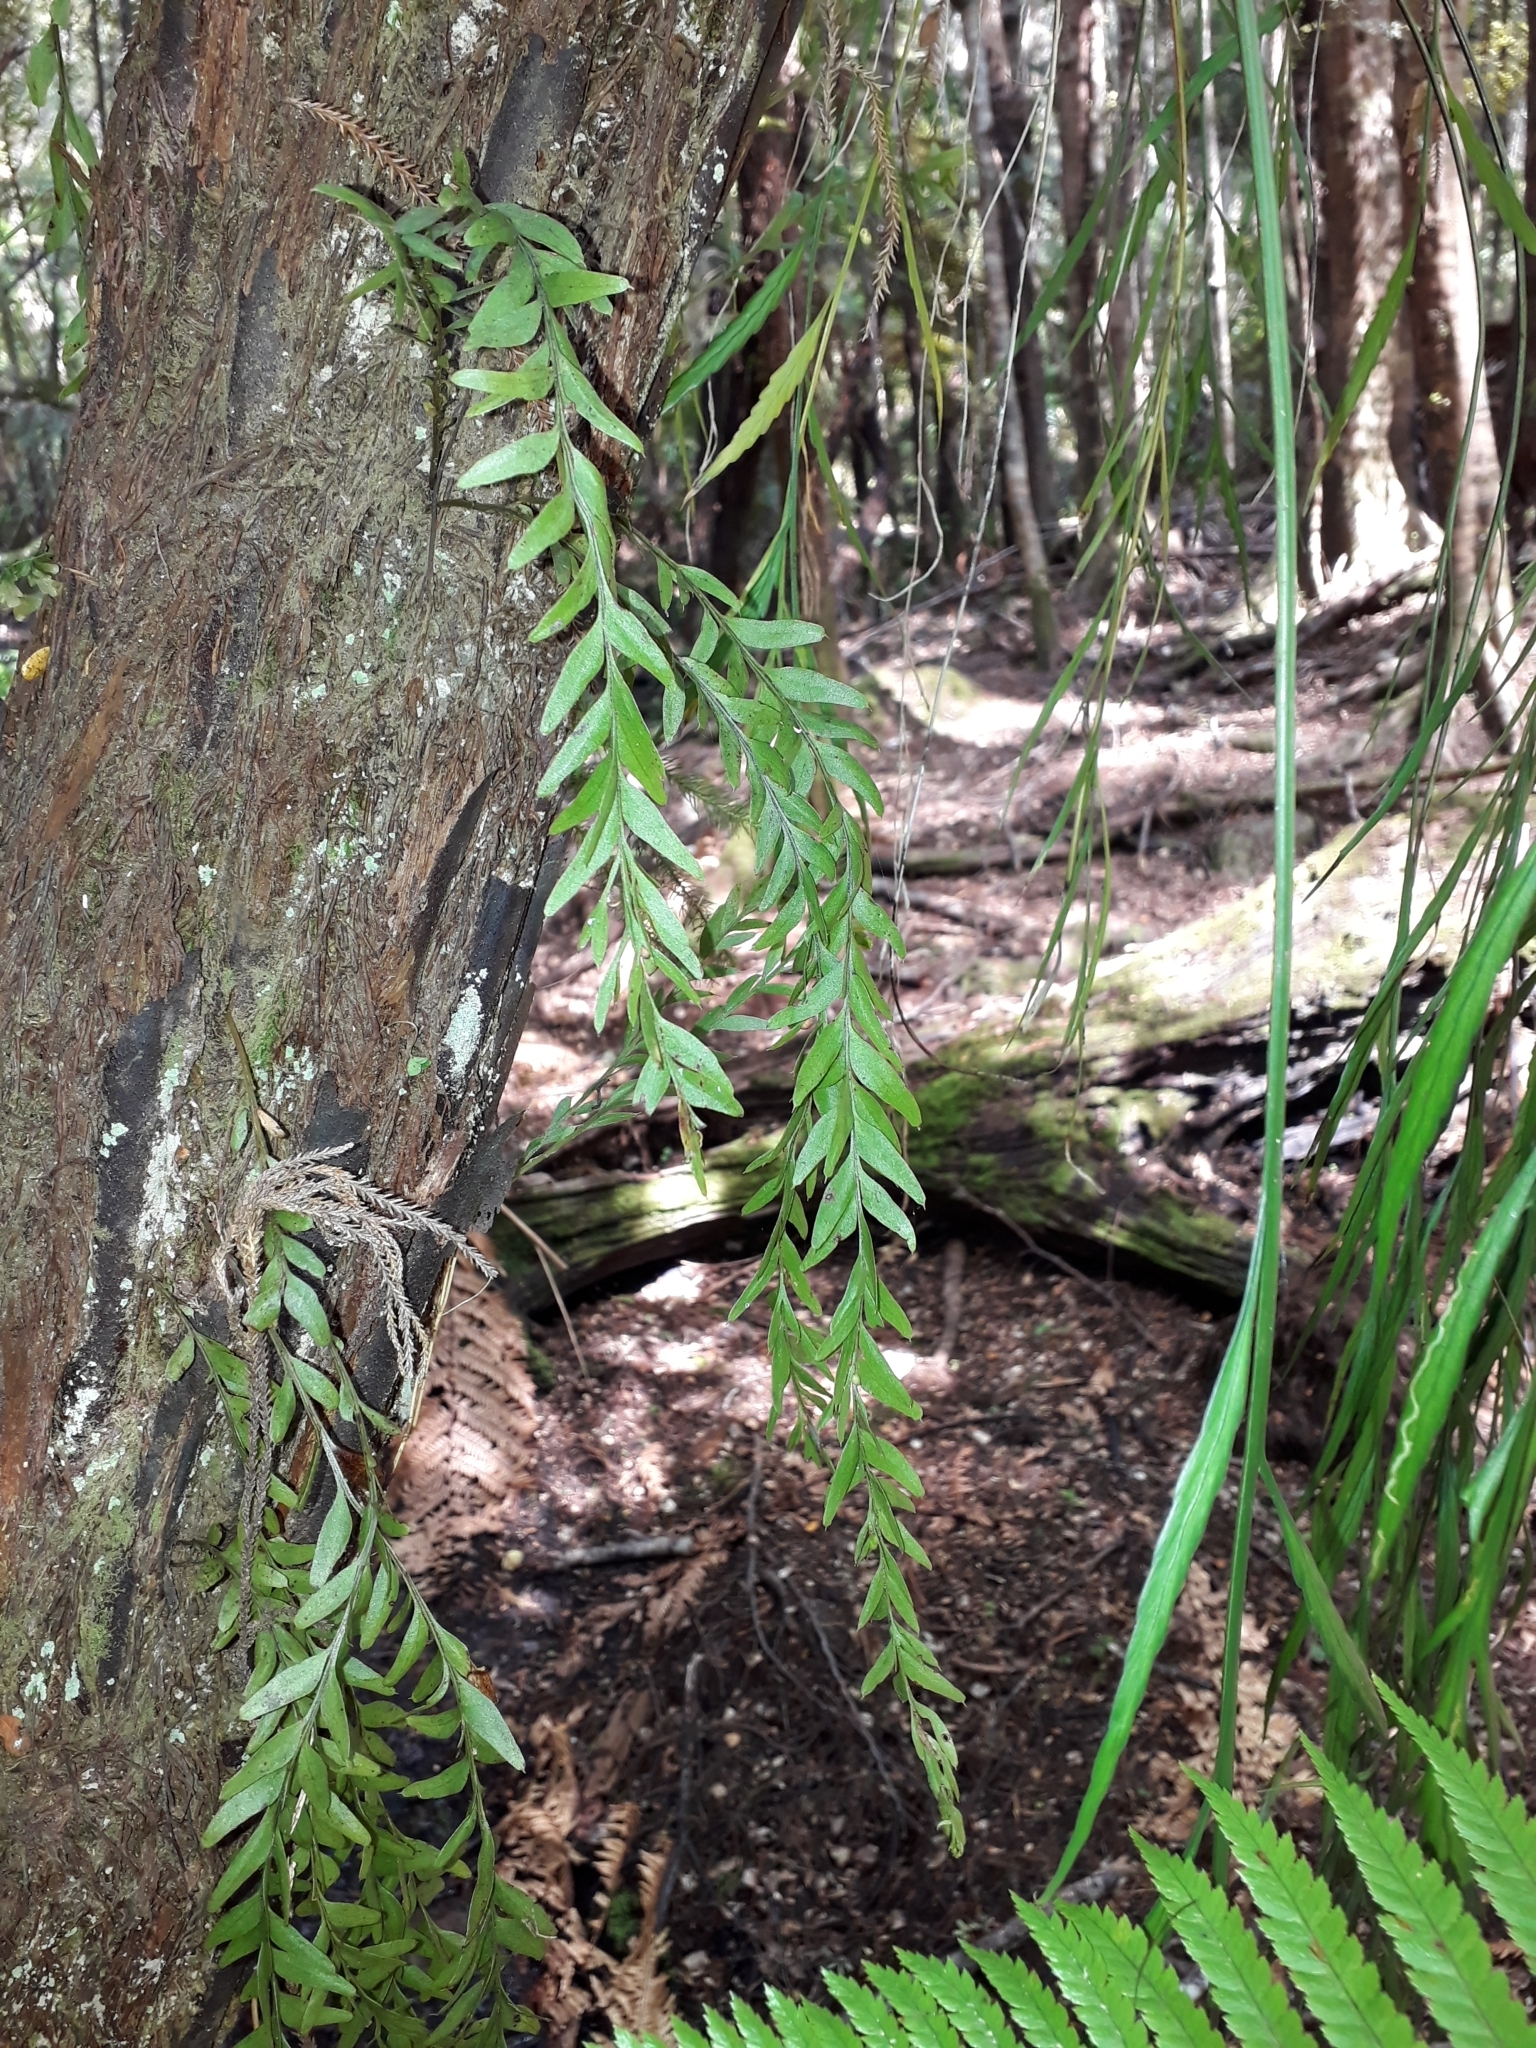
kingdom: Plantae
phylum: Tracheophyta
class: Polypodiopsida
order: Psilotales
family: Psilotaceae
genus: Tmesipteris
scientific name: Tmesipteris elongata
